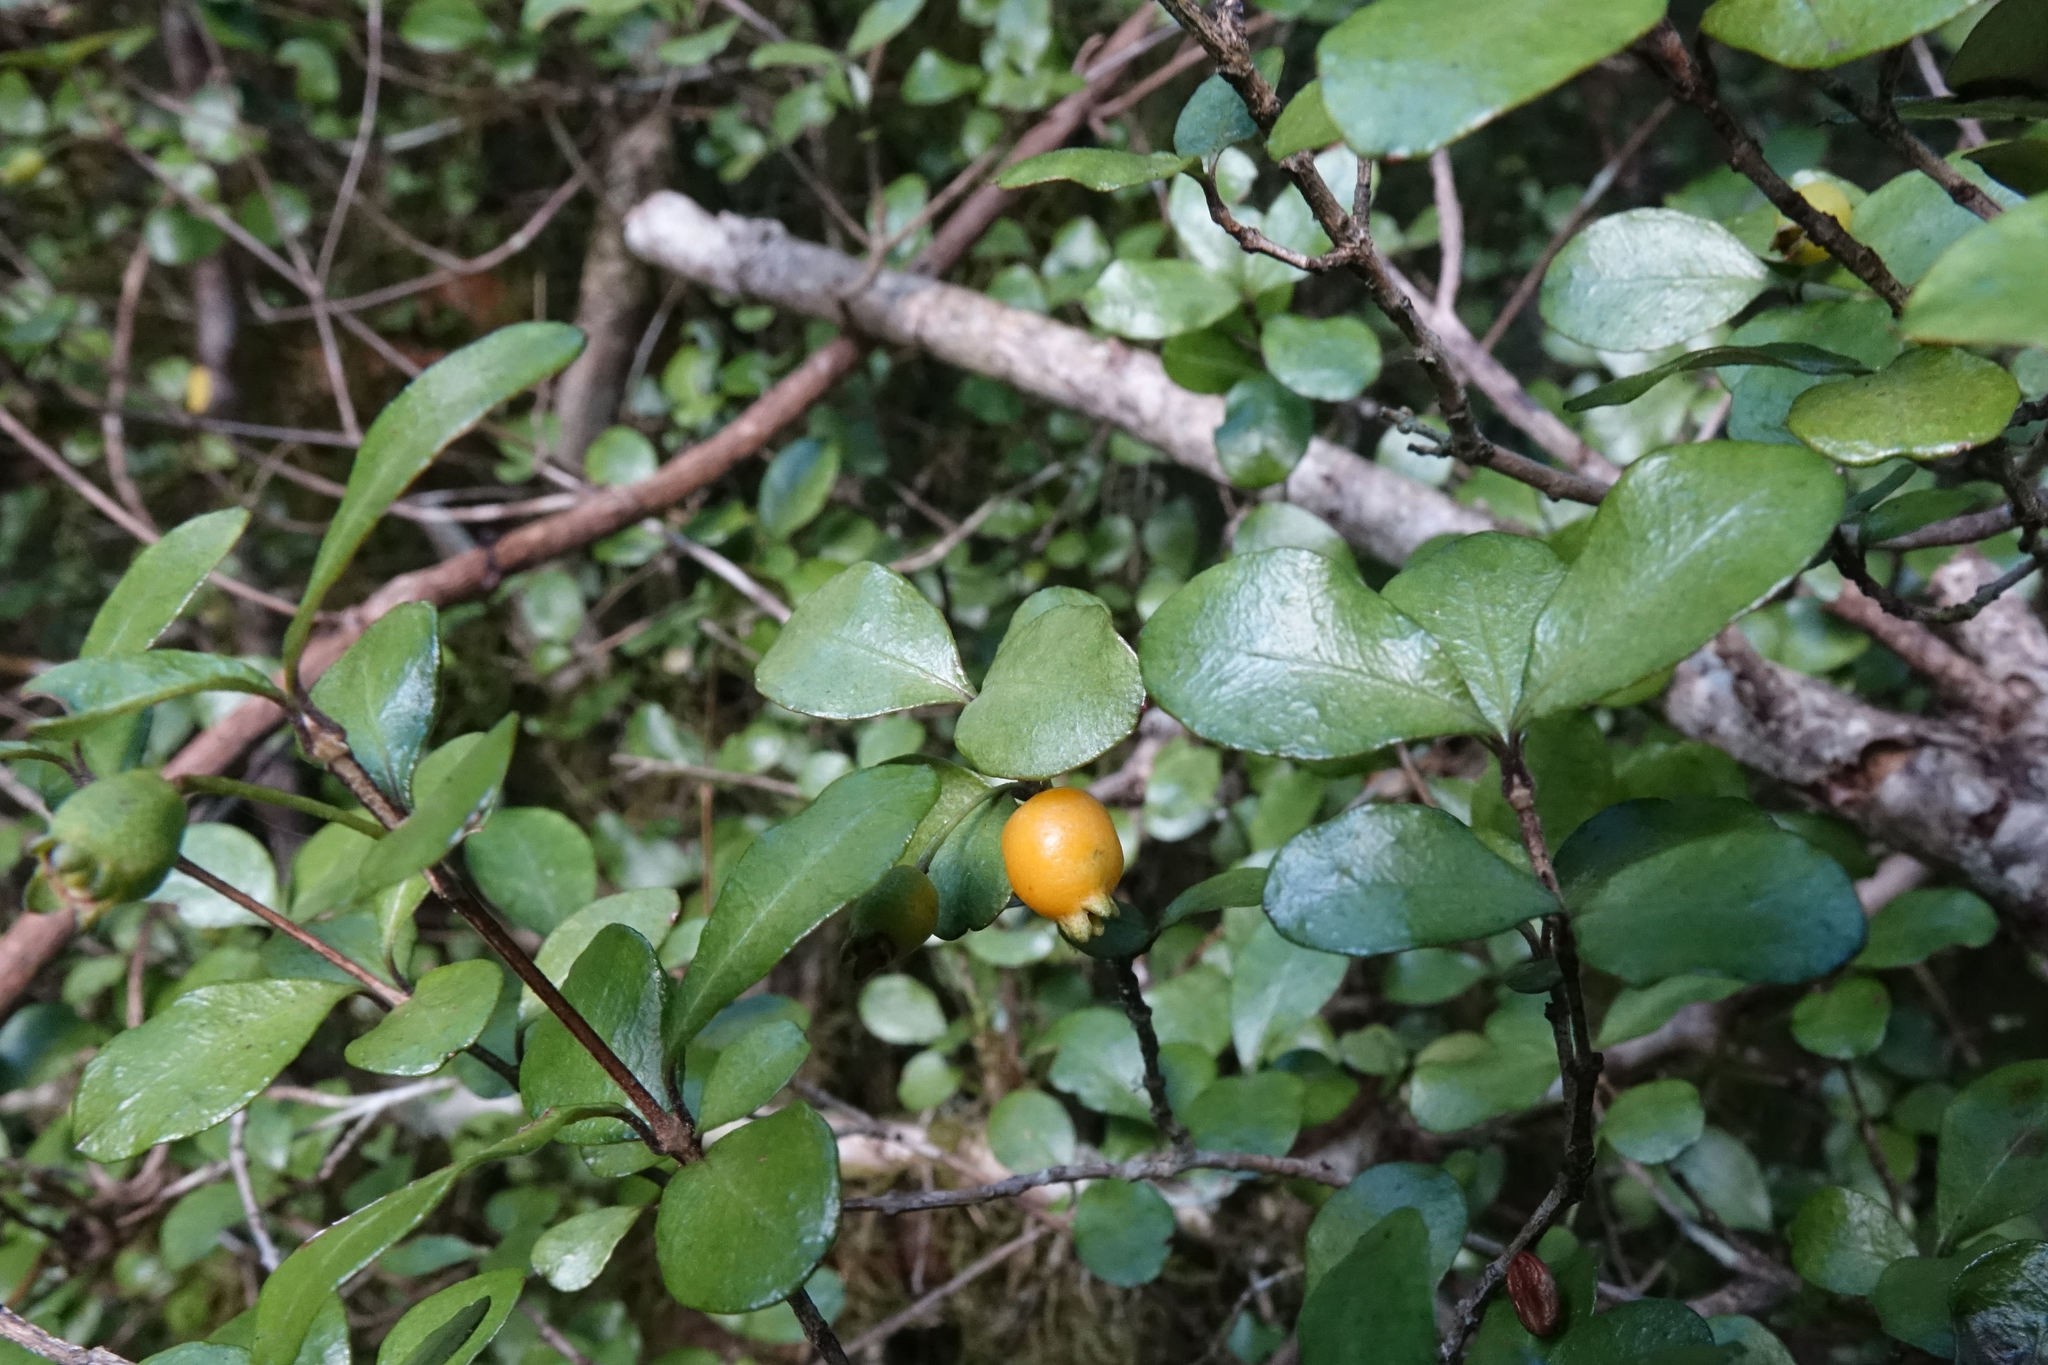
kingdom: Plantae
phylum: Tracheophyta
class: Magnoliopsida
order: Myrtales
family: Myrtaceae
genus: Neomyrtus
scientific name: Neomyrtus pedunculata
